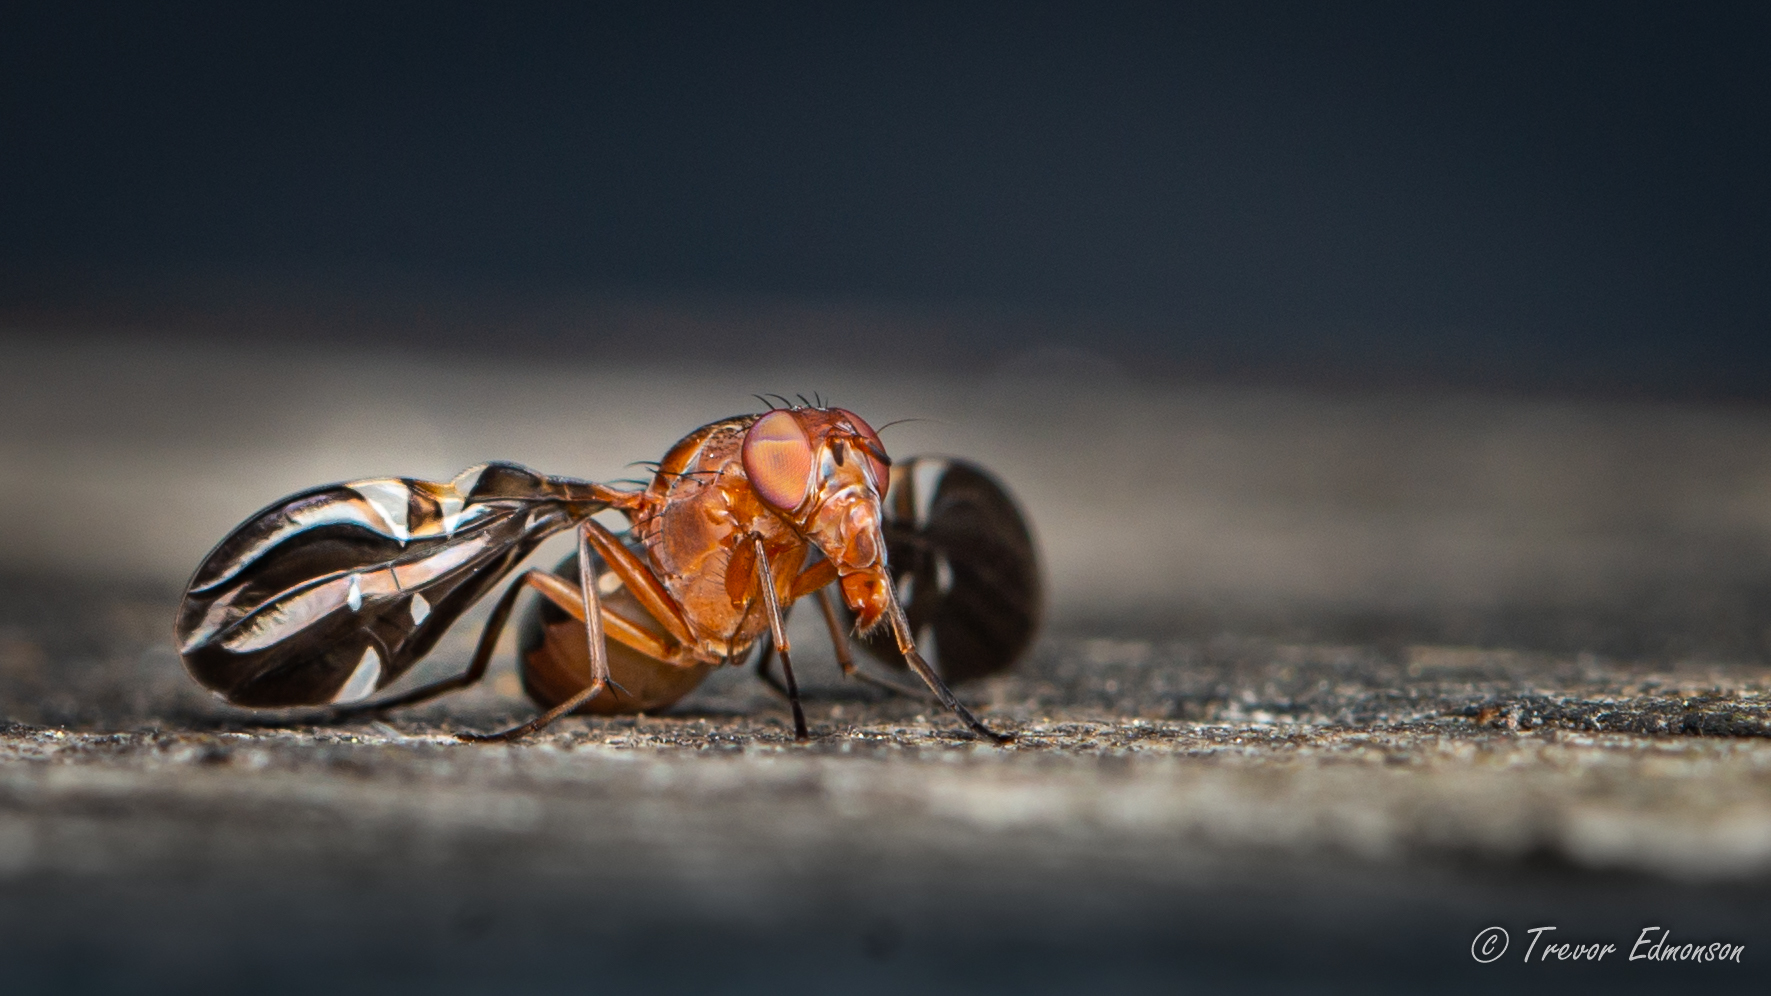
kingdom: Animalia
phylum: Arthropoda
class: Insecta
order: Diptera
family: Ulidiidae
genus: Delphinia
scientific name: Delphinia picta
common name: Common picture-winged fly
